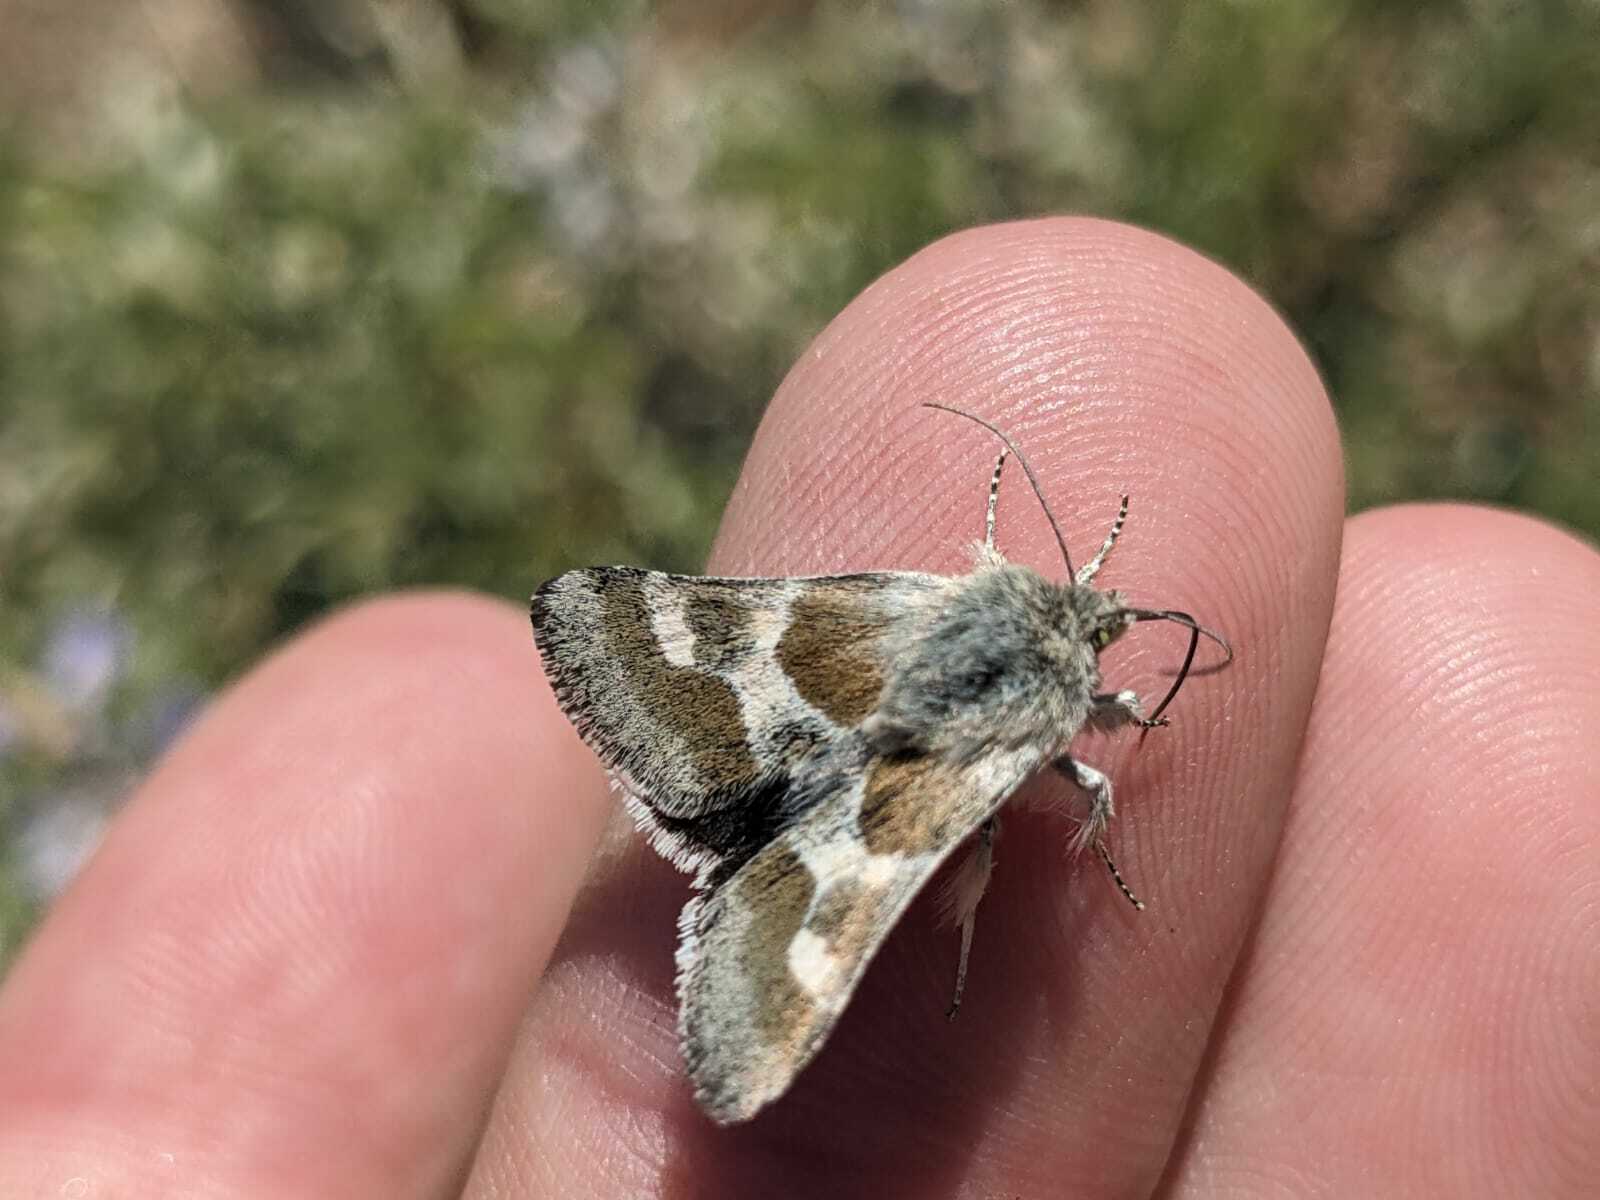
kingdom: Animalia
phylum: Arthropoda
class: Insecta
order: Lepidoptera
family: Noctuidae
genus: Schinia
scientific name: Schinia suetus
